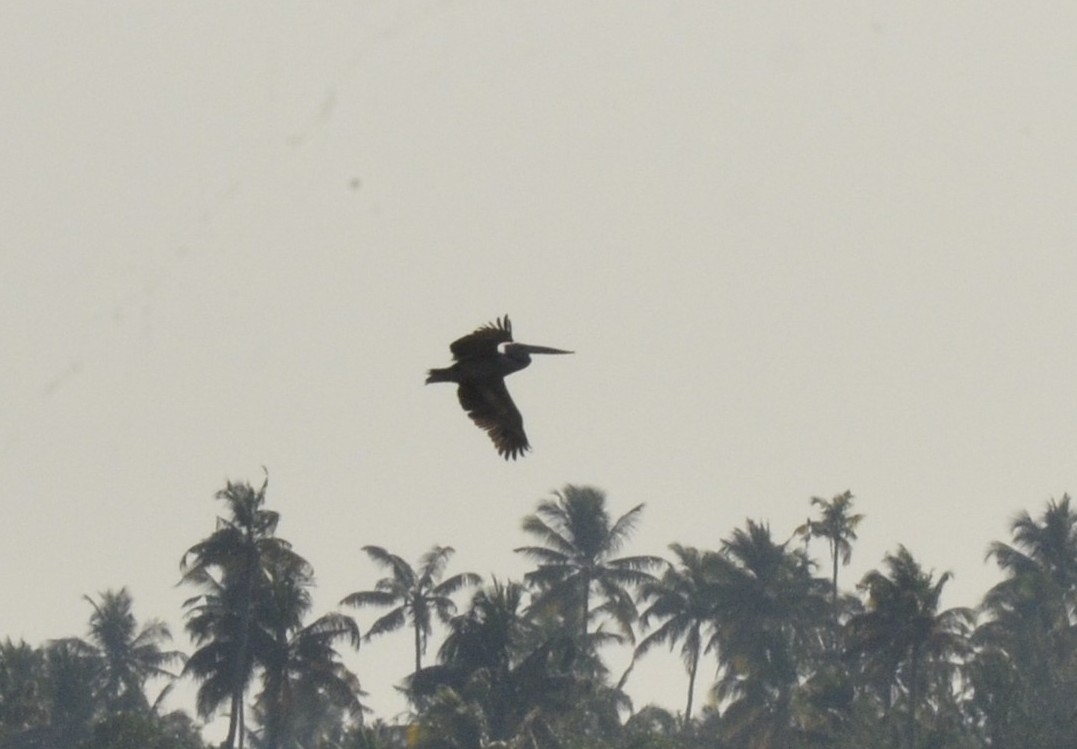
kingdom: Animalia
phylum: Chordata
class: Aves
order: Pelecaniformes
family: Pelecanidae
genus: Pelecanus
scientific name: Pelecanus philippensis
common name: Spot-billed pelican
